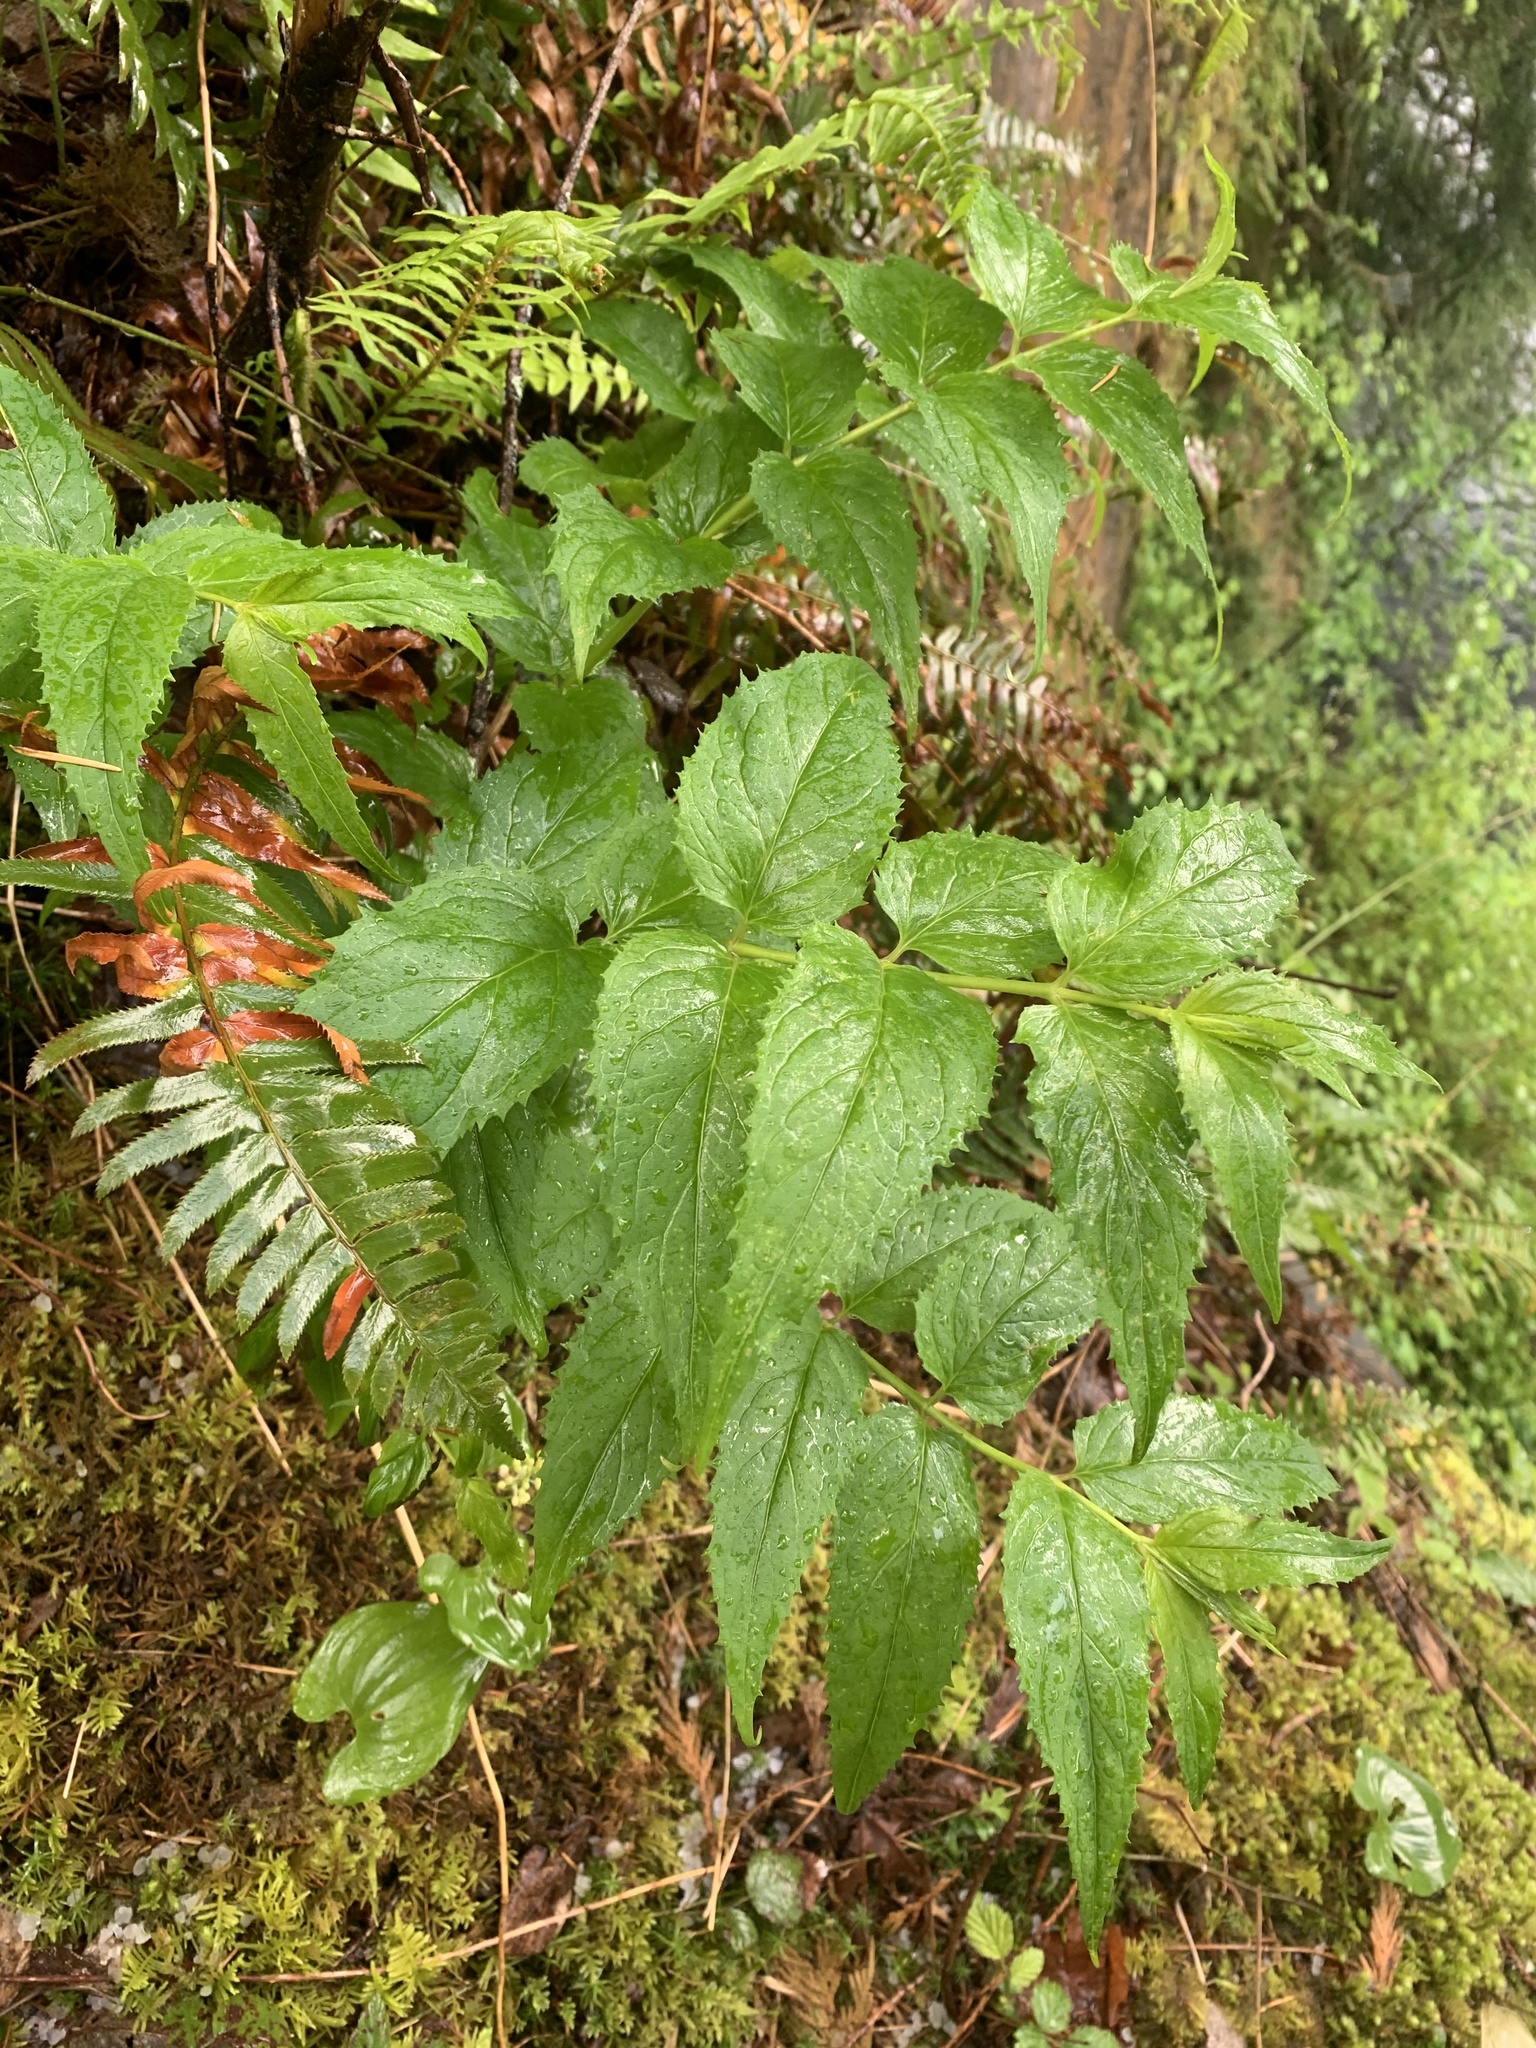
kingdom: Plantae
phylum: Tracheophyta
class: Magnoliopsida
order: Lamiales
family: Plantaginaceae
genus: Nothochelone
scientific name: Nothochelone nemorosa
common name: Woodland beardtongue
